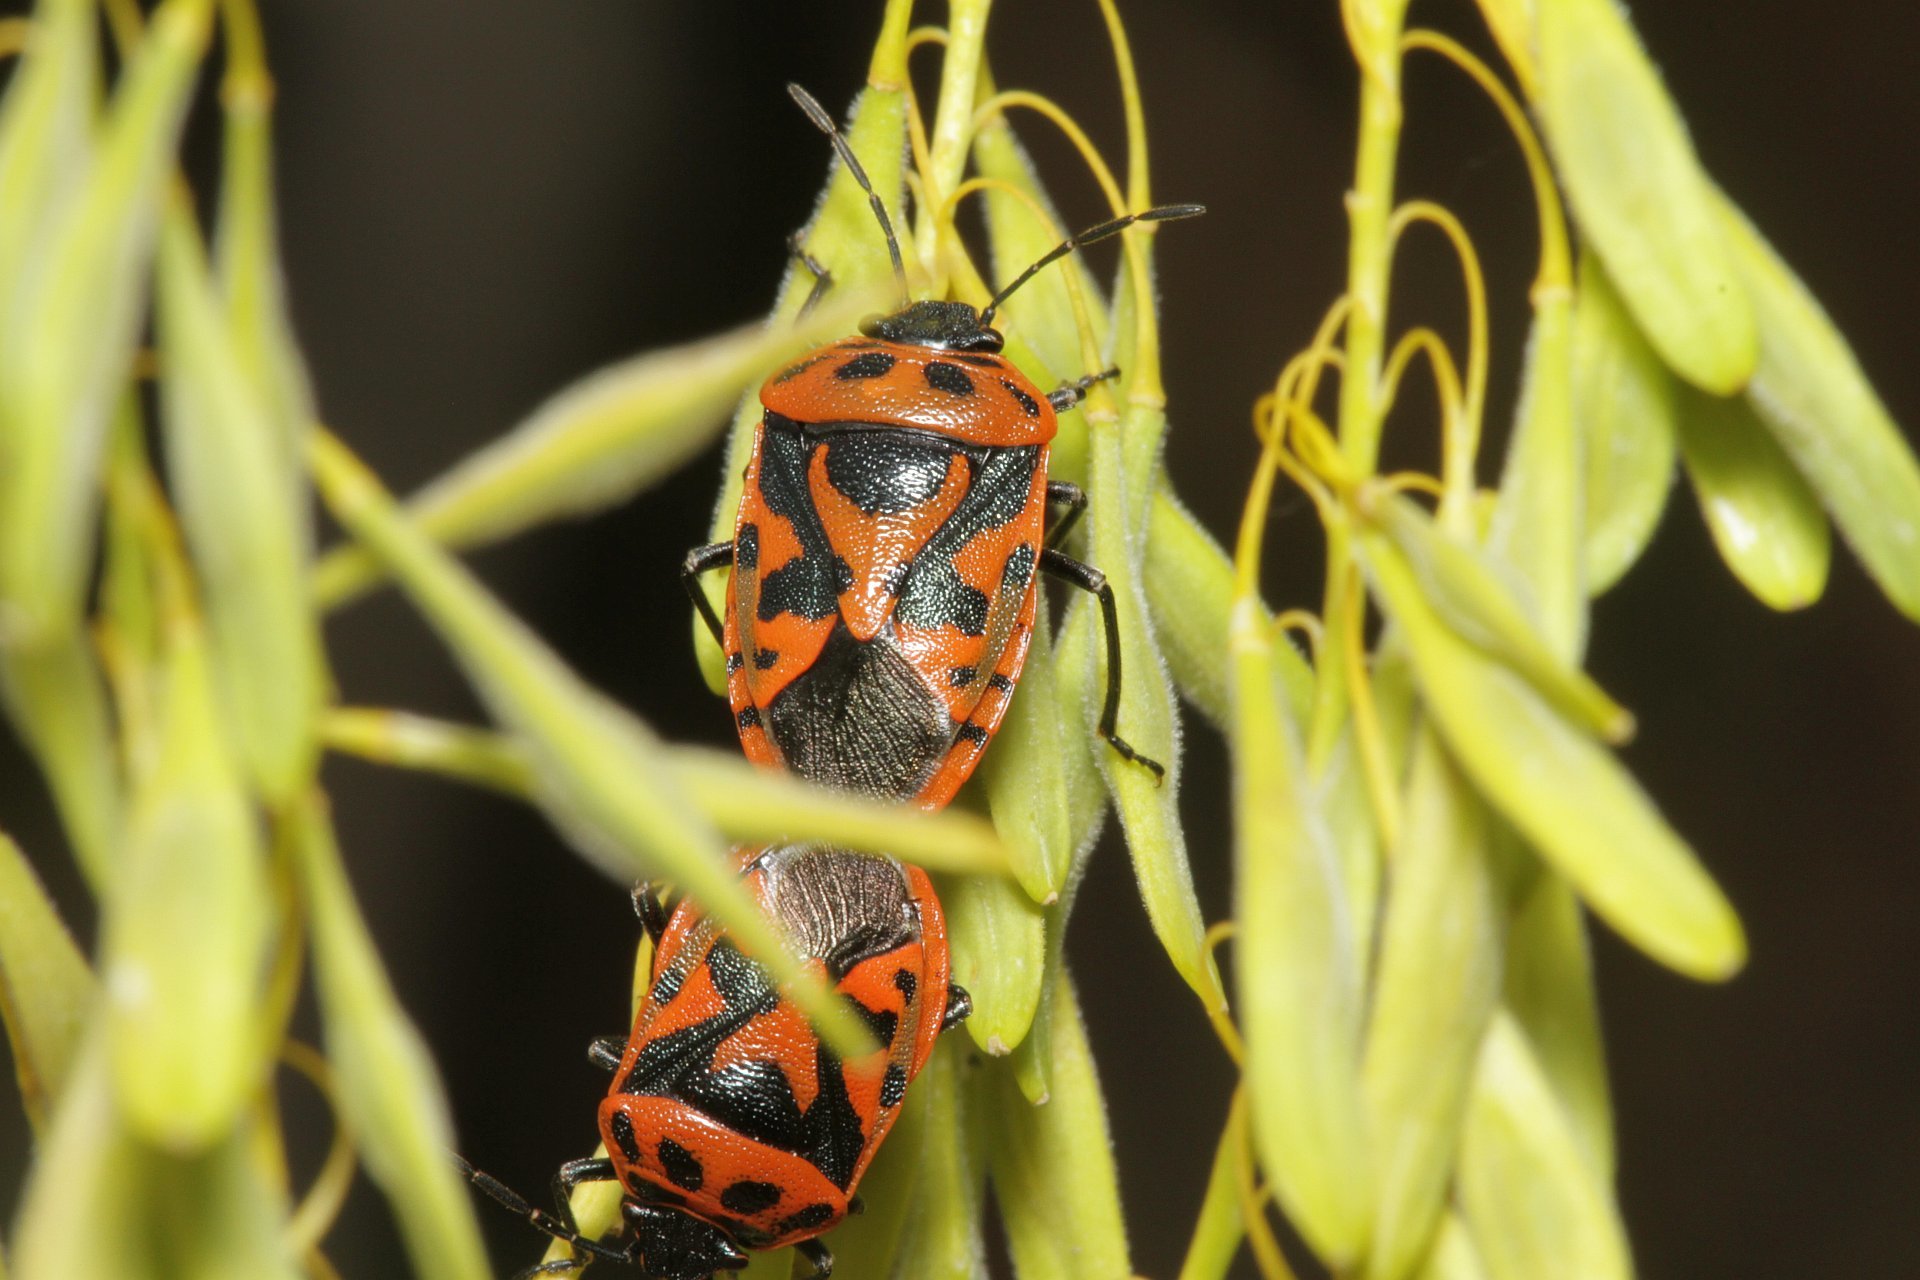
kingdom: Animalia
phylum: Arthropoda
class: Insecta
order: Hemiptera
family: Pentatomidae
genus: Eurydema
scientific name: Eurydema ornata
